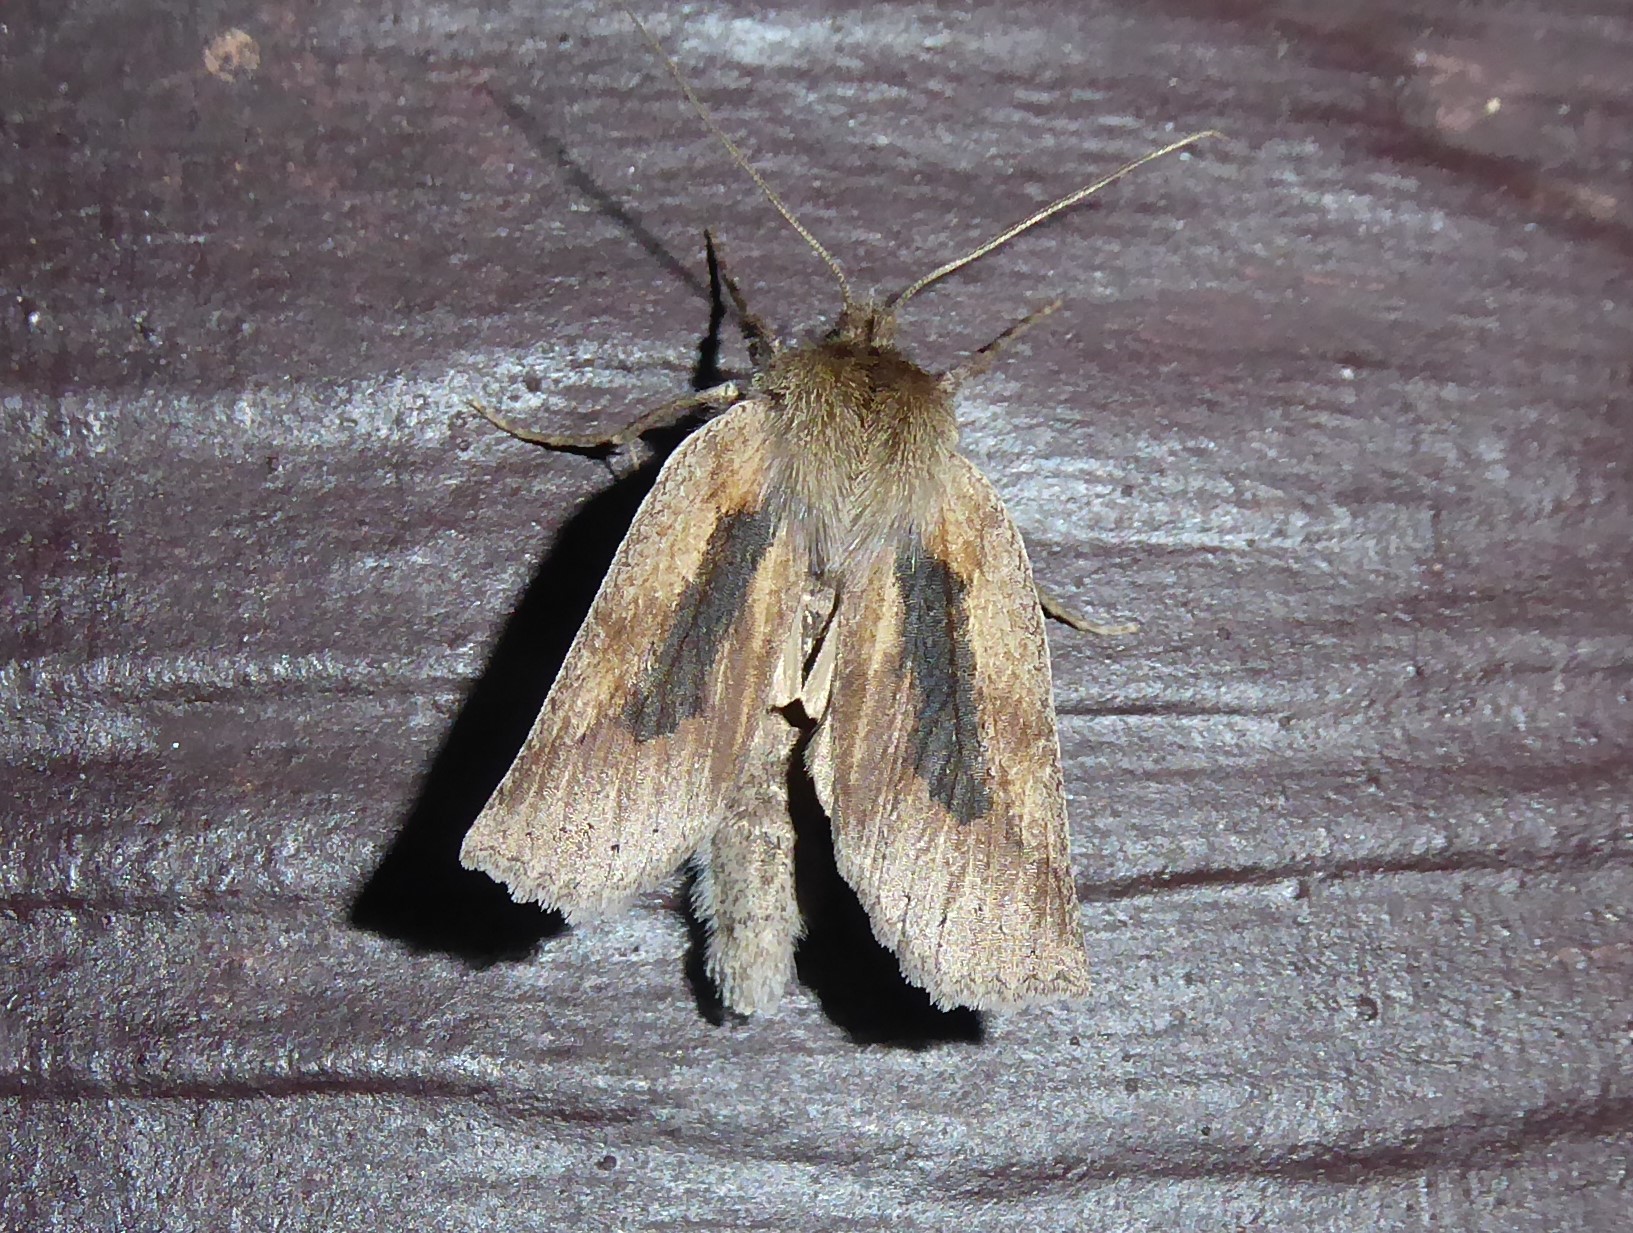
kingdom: Animalia
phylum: Arthropoda
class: Insecta
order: Lepidoptera
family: Geometridae
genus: Declana
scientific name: Declana leptomera
